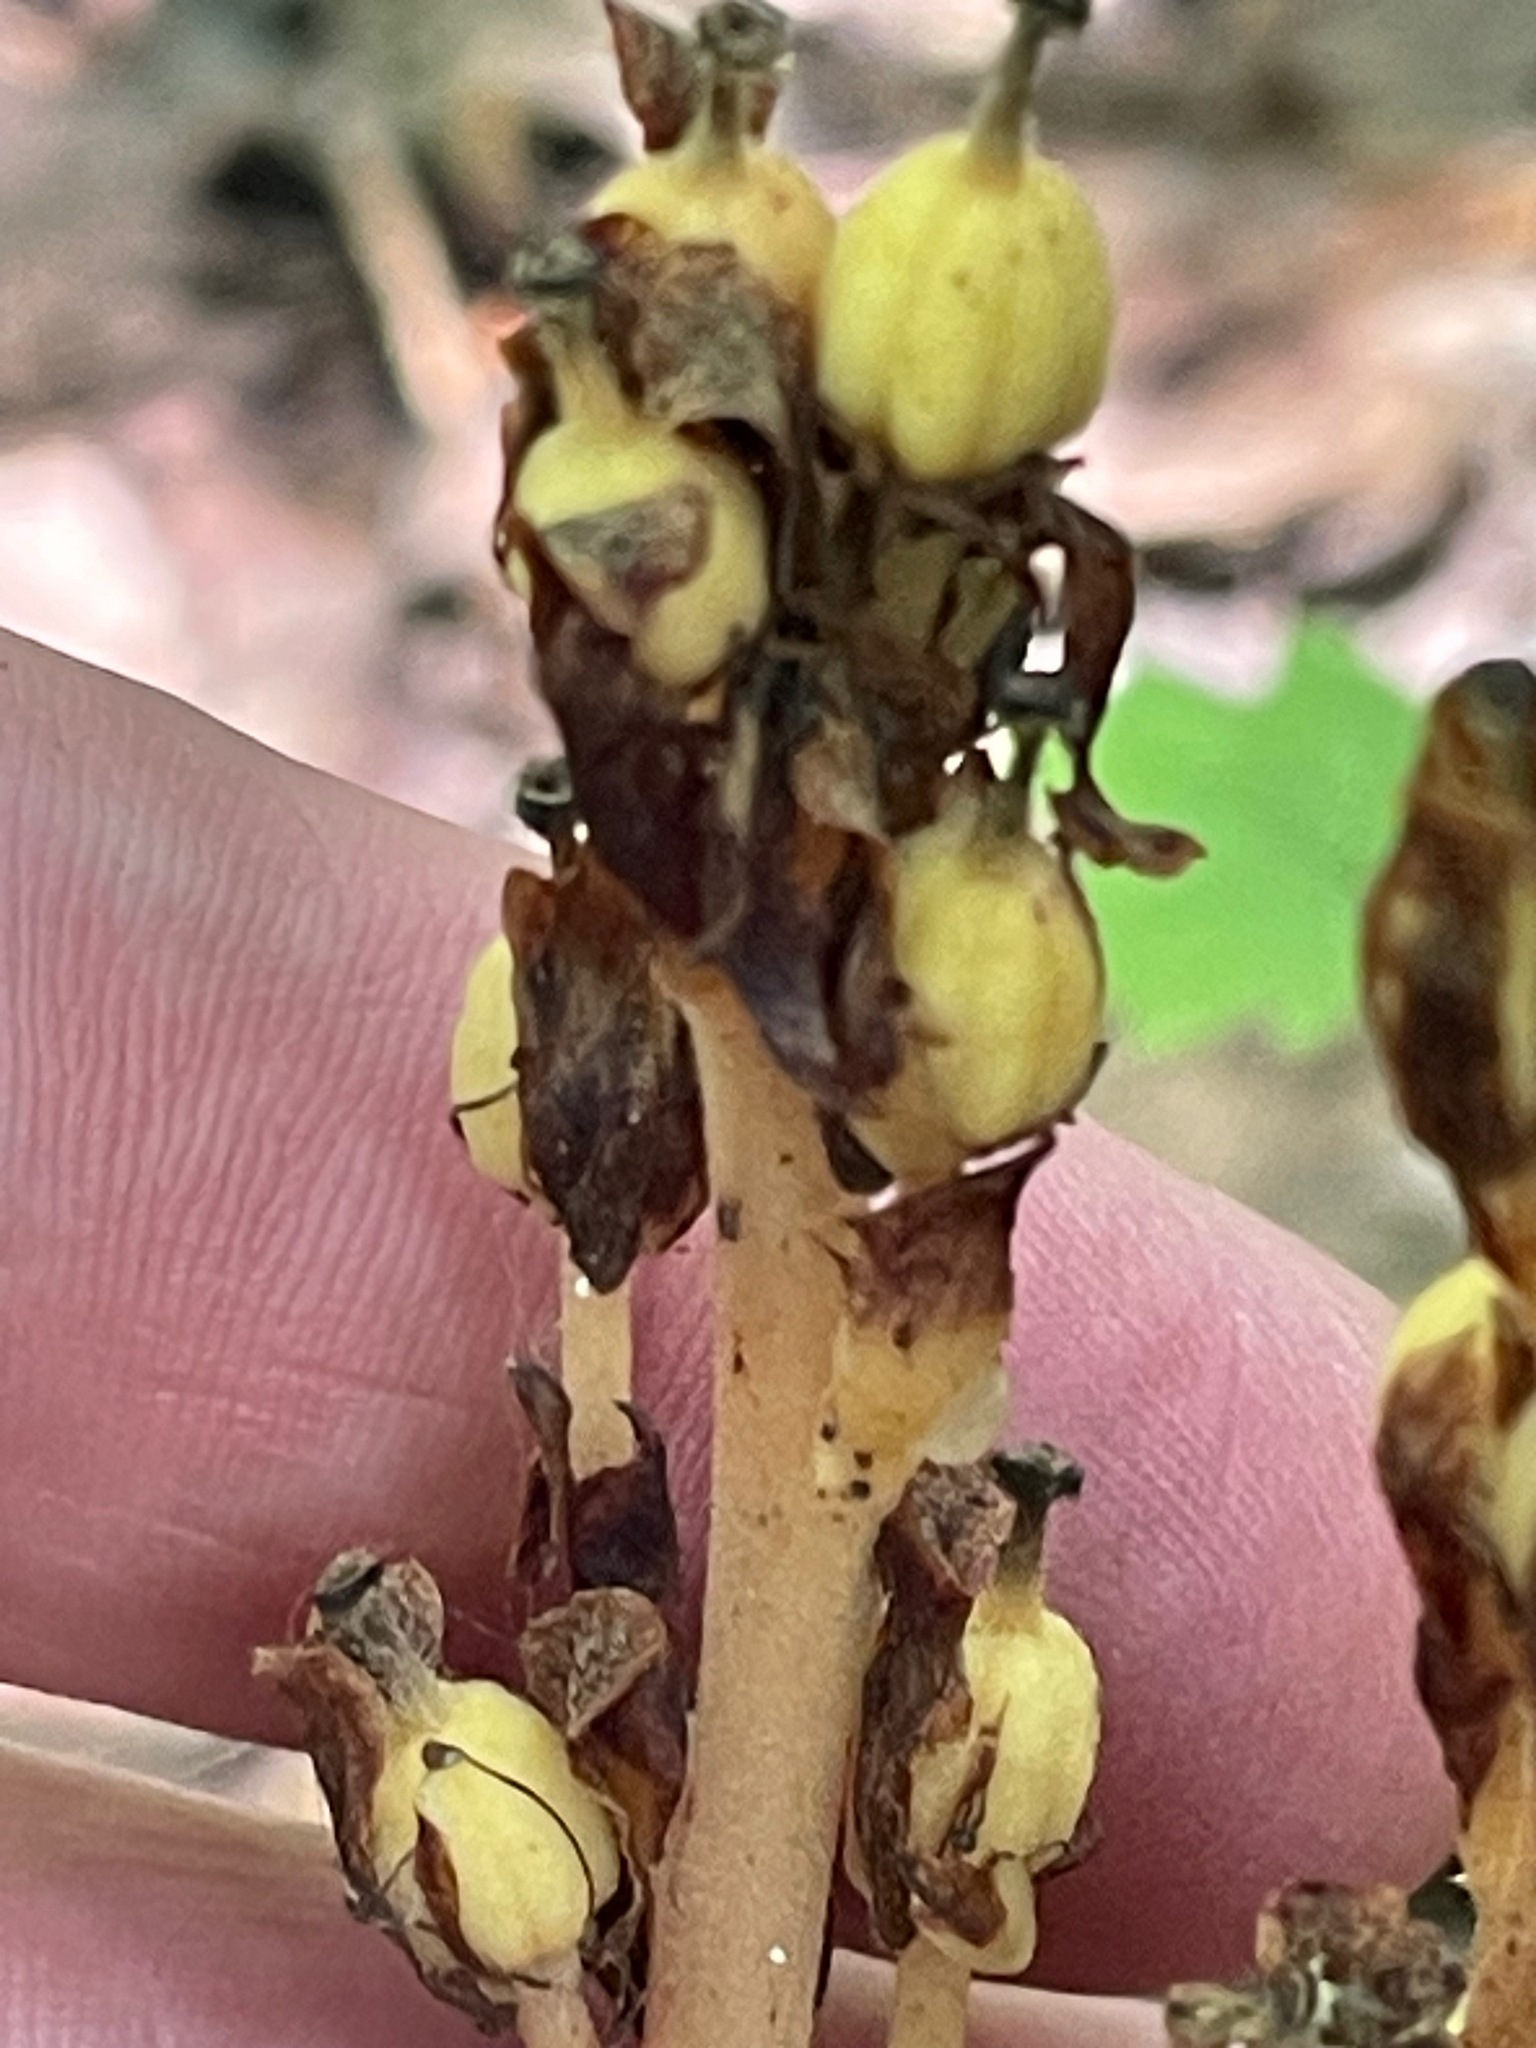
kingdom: Plantae
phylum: Tracheophyta
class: Magnoliopsida
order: Ericales
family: Ericaceae
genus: Hypopitys
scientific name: Hypopitys monotropa
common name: Yellow bird's-nest
